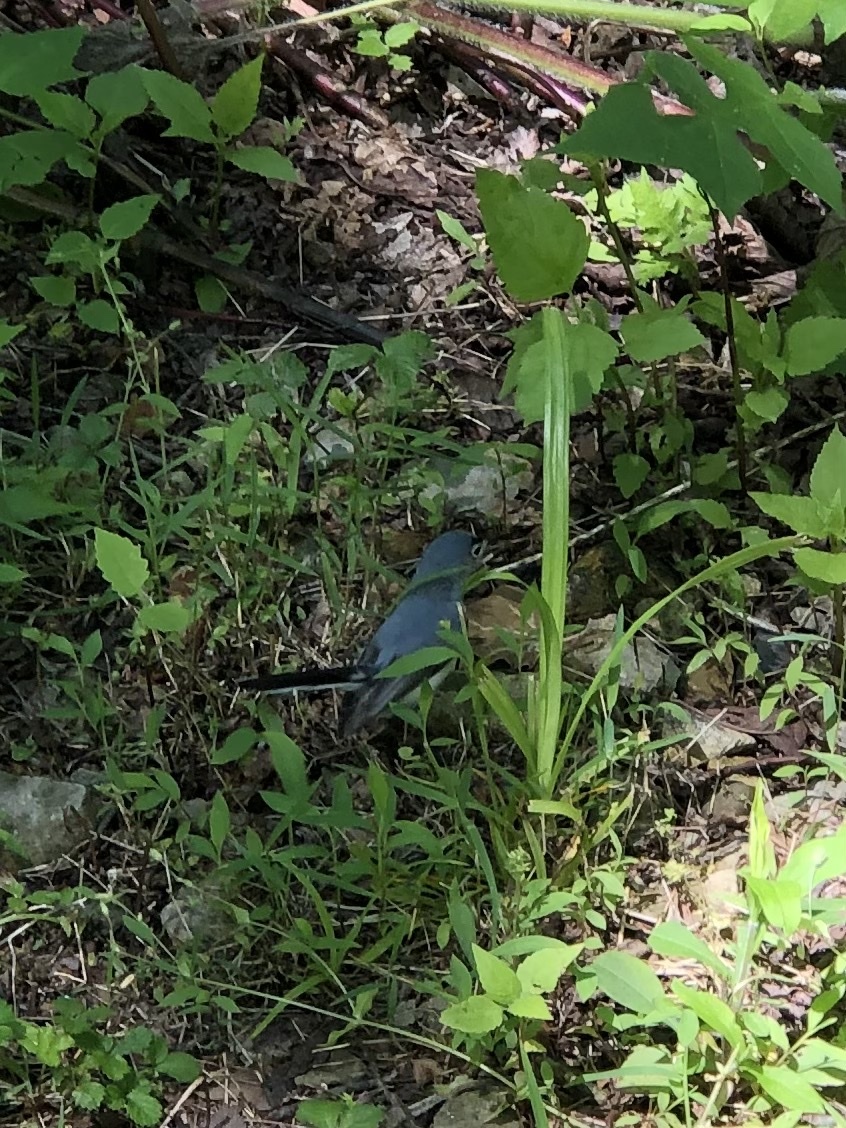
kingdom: Animalia
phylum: Chordata
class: Aves
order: Passeriformes
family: Polioptilidae
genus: Polioptila
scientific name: Polioptila caerulea
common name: Blue-gray gnatcatcher
